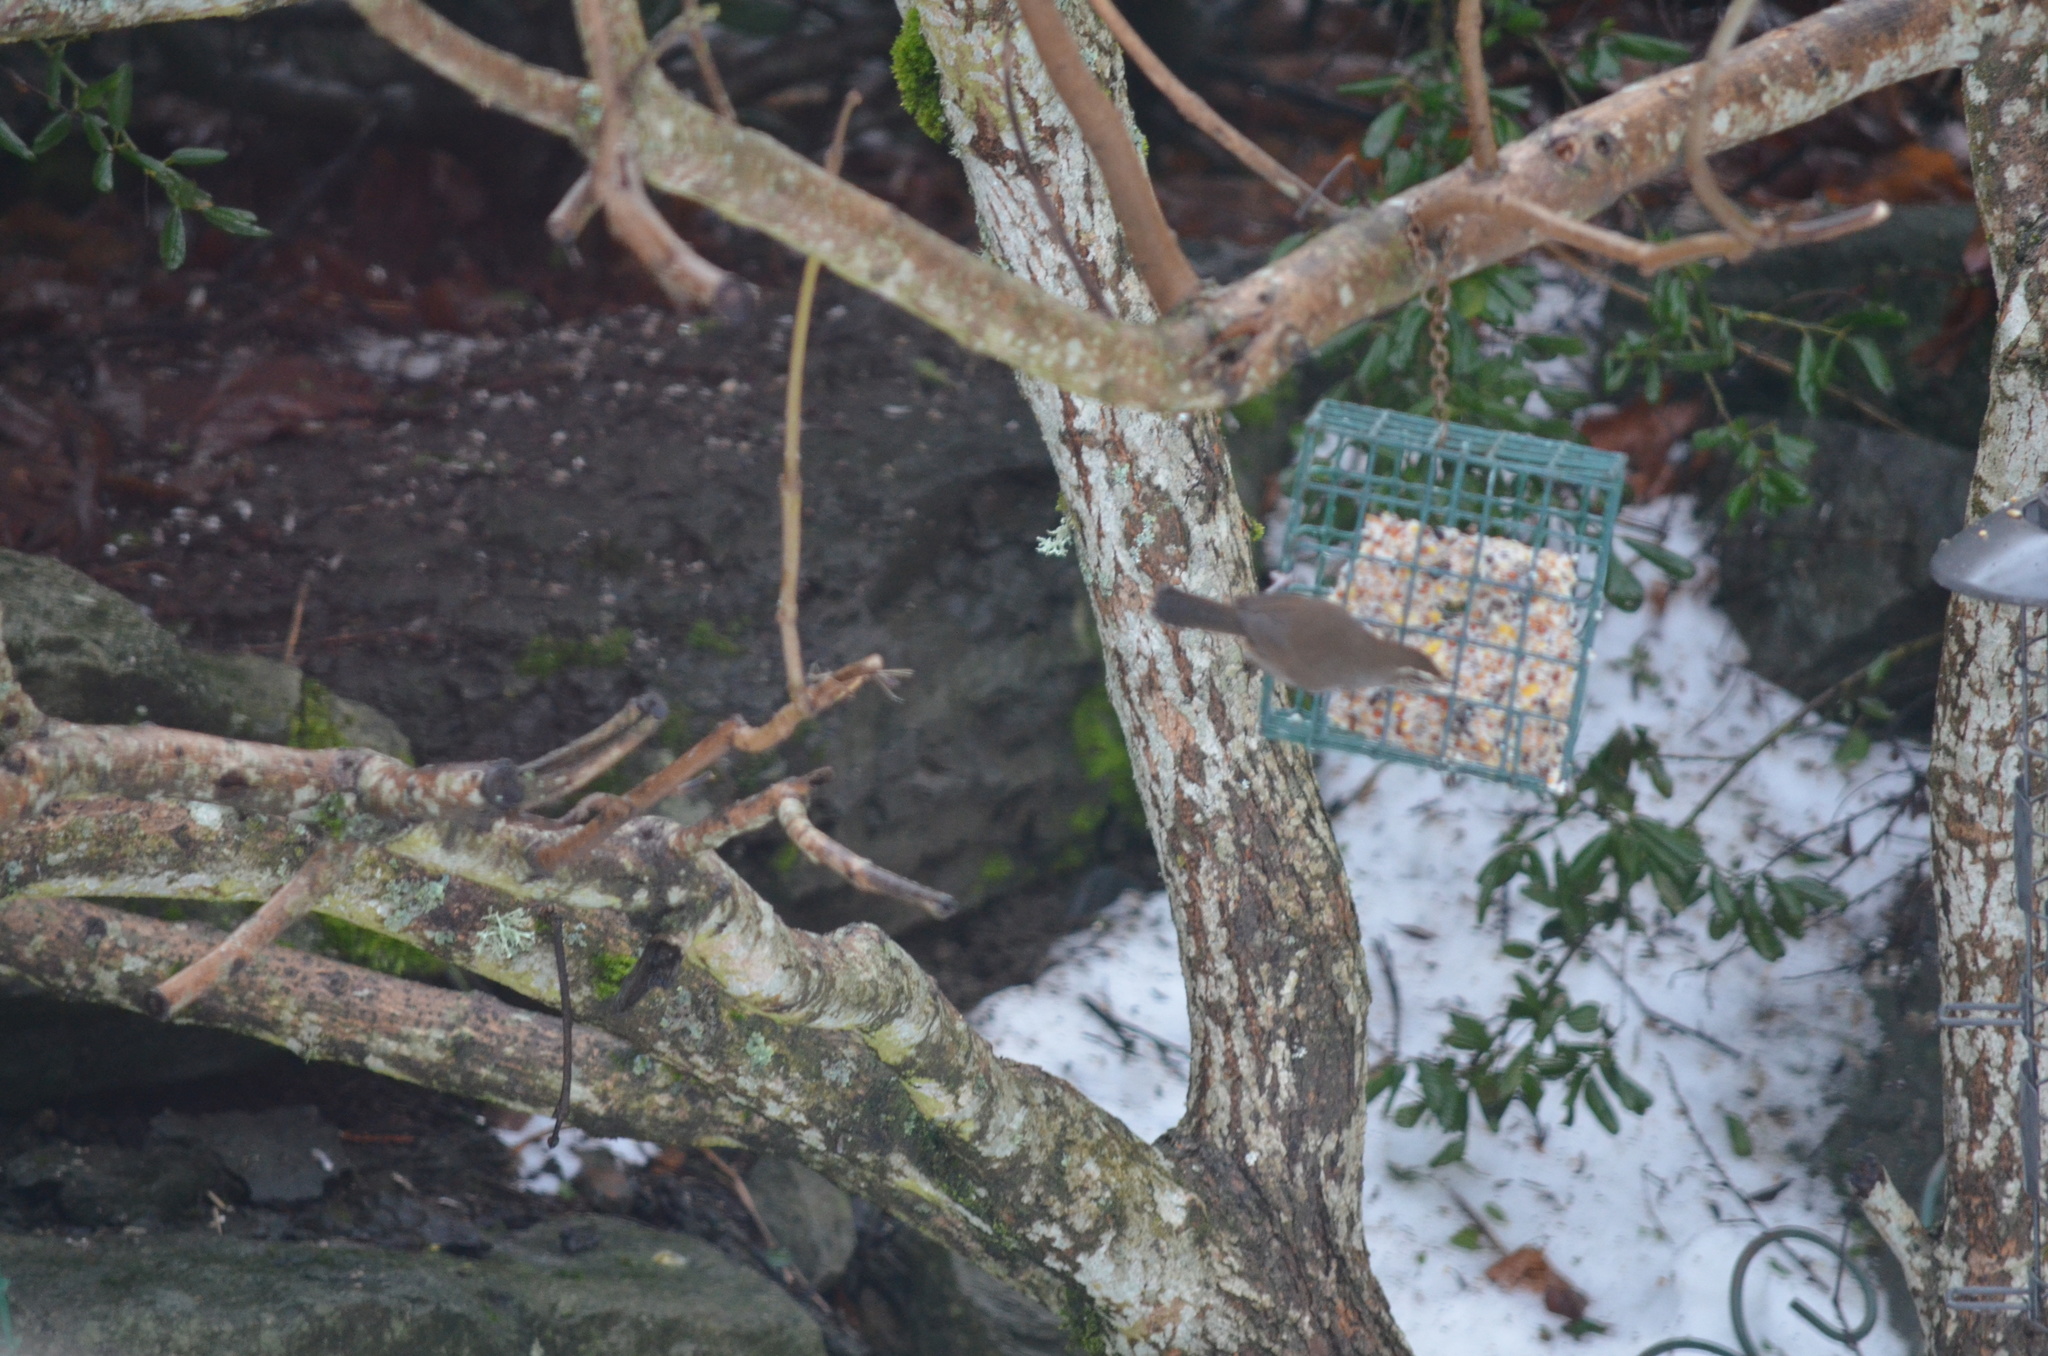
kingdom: Animalia
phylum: Chordata
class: Aves
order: Passeriformes
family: Troglodytidae
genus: Thryomanes
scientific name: Thryomanes bewickii
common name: Bewick's wren
